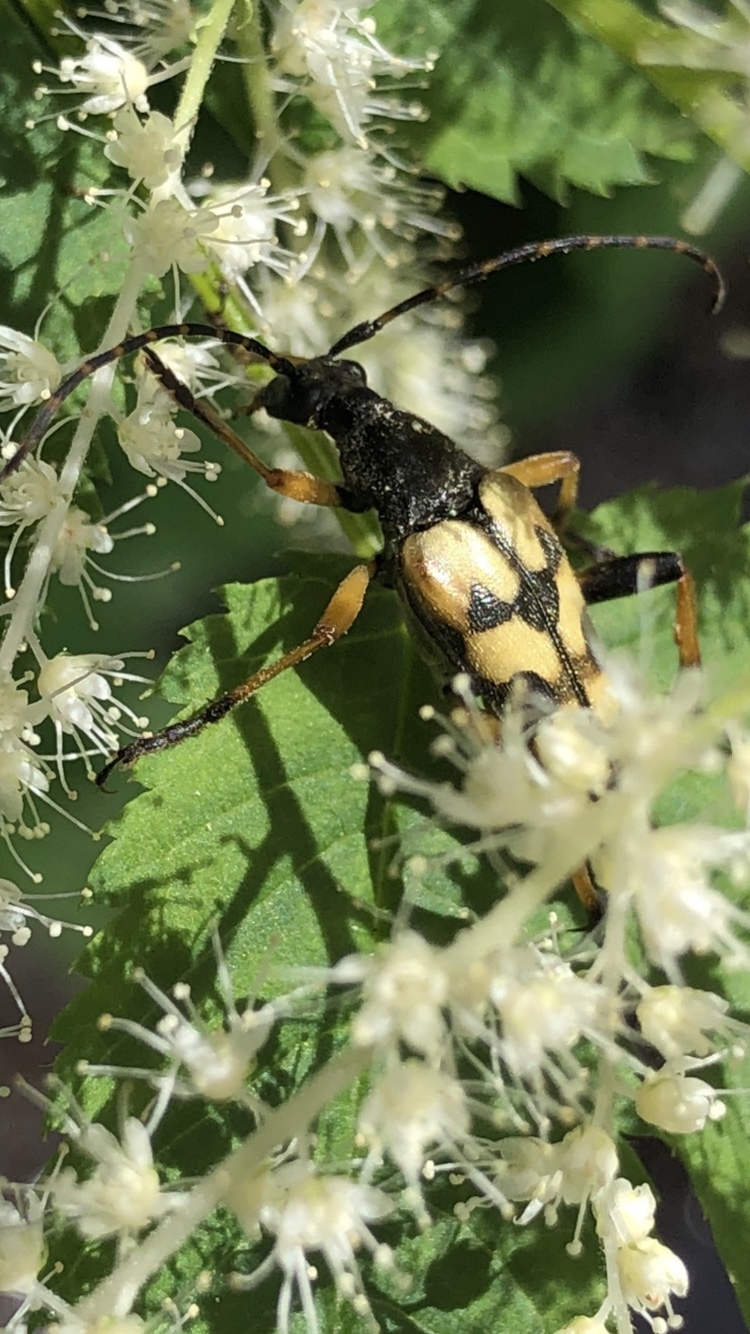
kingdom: Animalia
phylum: Arthropoda
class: Insecta
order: Coleoptera
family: Cerambycidae
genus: Rutpela
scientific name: Rutpela maculata
